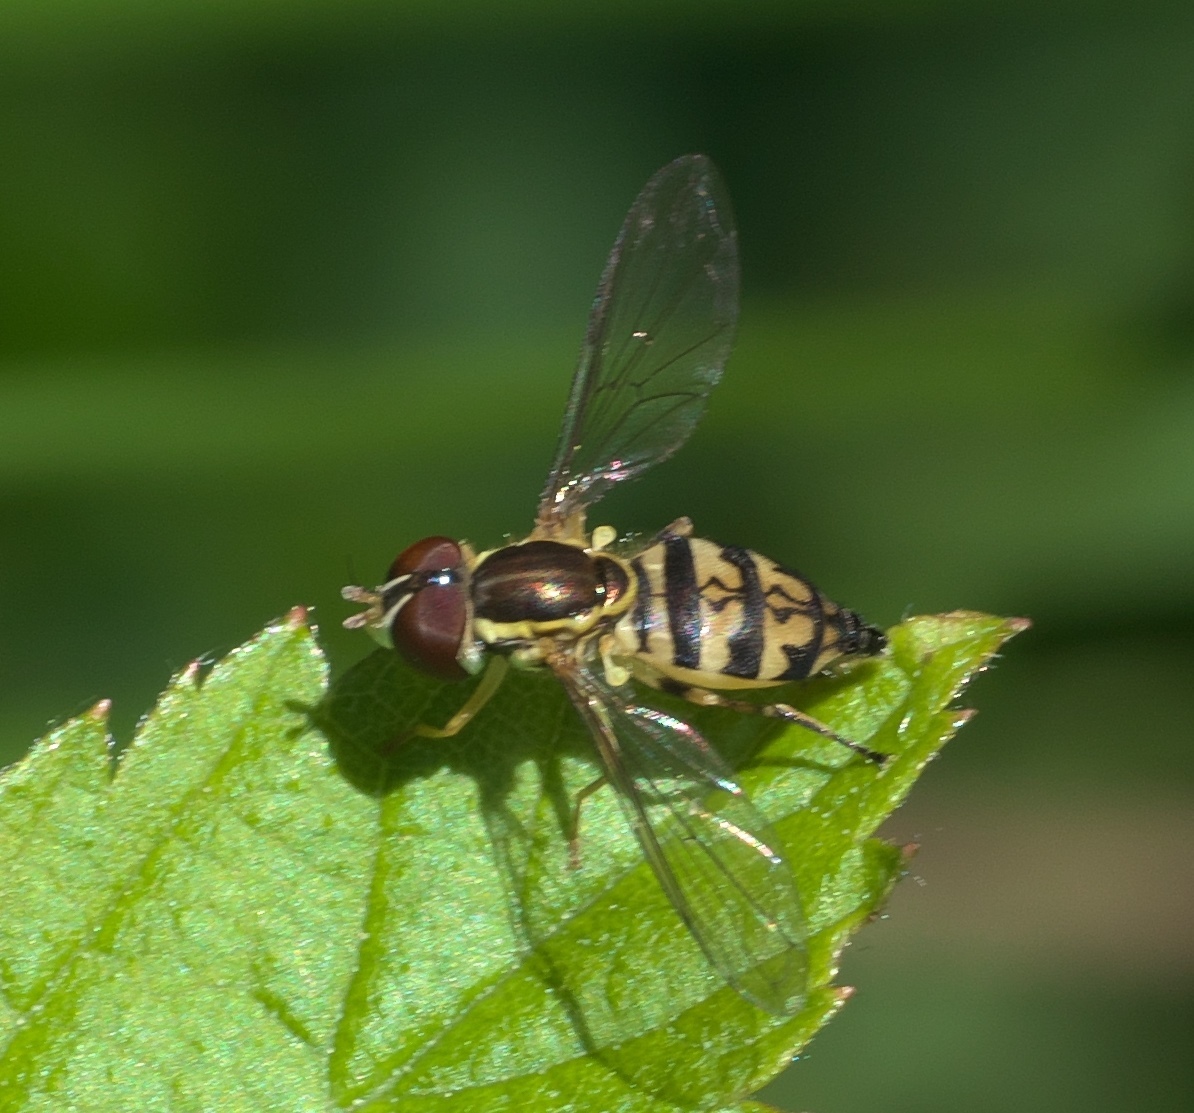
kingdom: Animalia
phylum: Arthropoda
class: Insecta
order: Diptera
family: Syrphidae
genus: Toxomerus
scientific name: Toxomerus geminatus
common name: Eastern calligrapher
